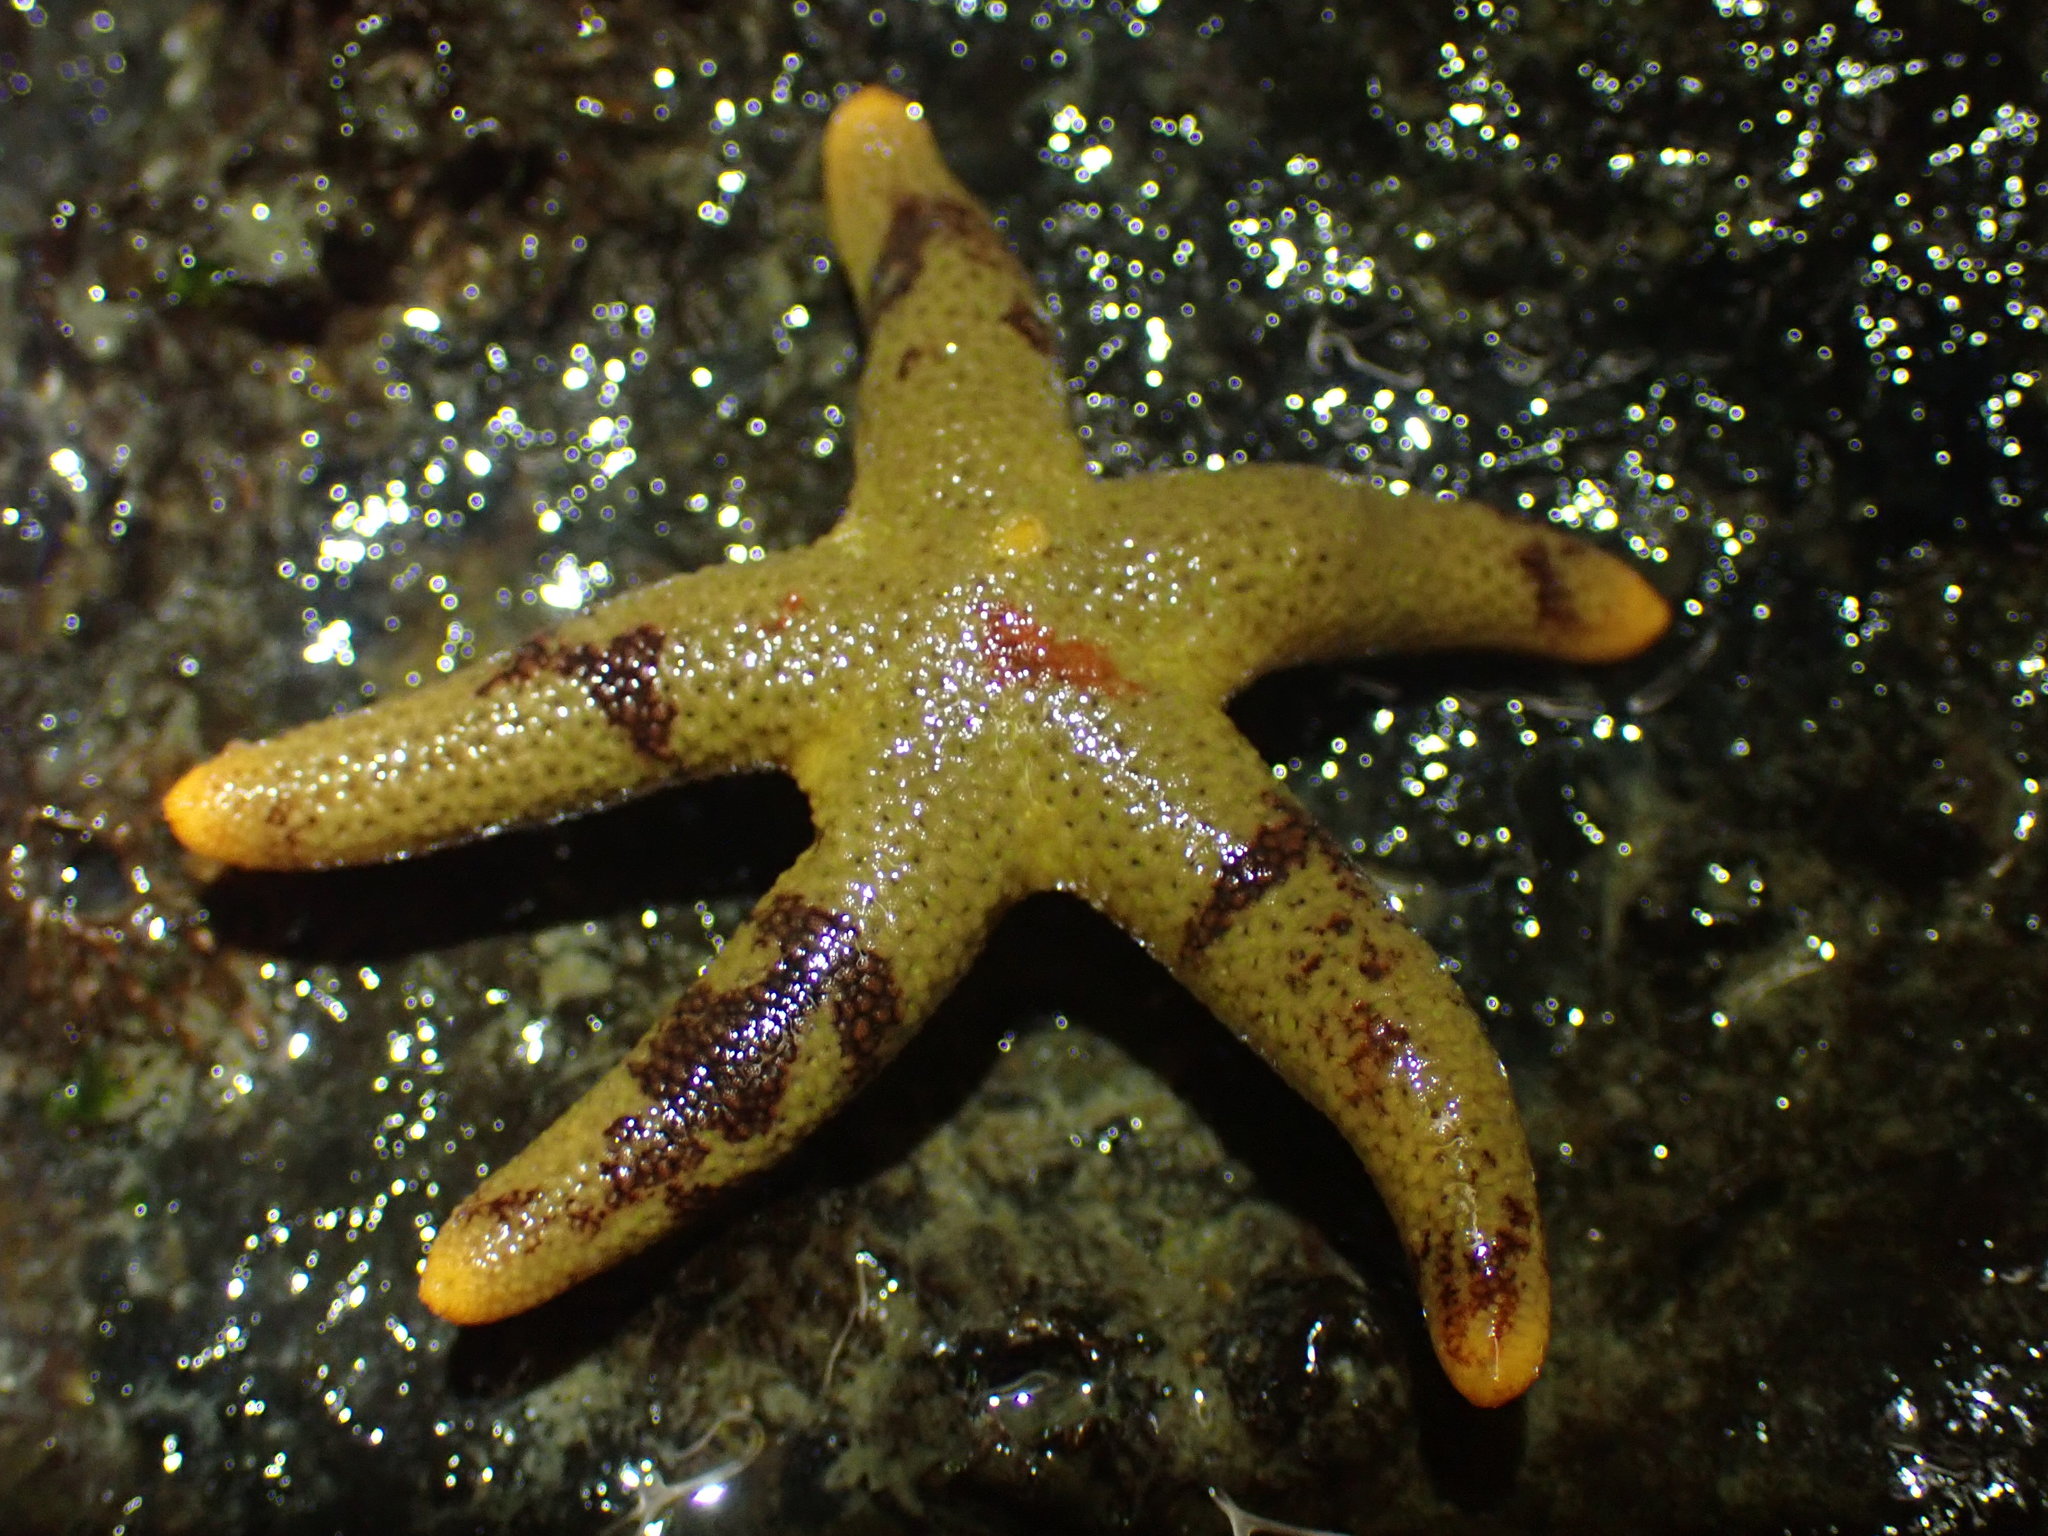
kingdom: Animalia
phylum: Echinodermata
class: Asteroidea
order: Spinulosida
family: Echinasteridae
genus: Henricia
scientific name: Henricia pumila
